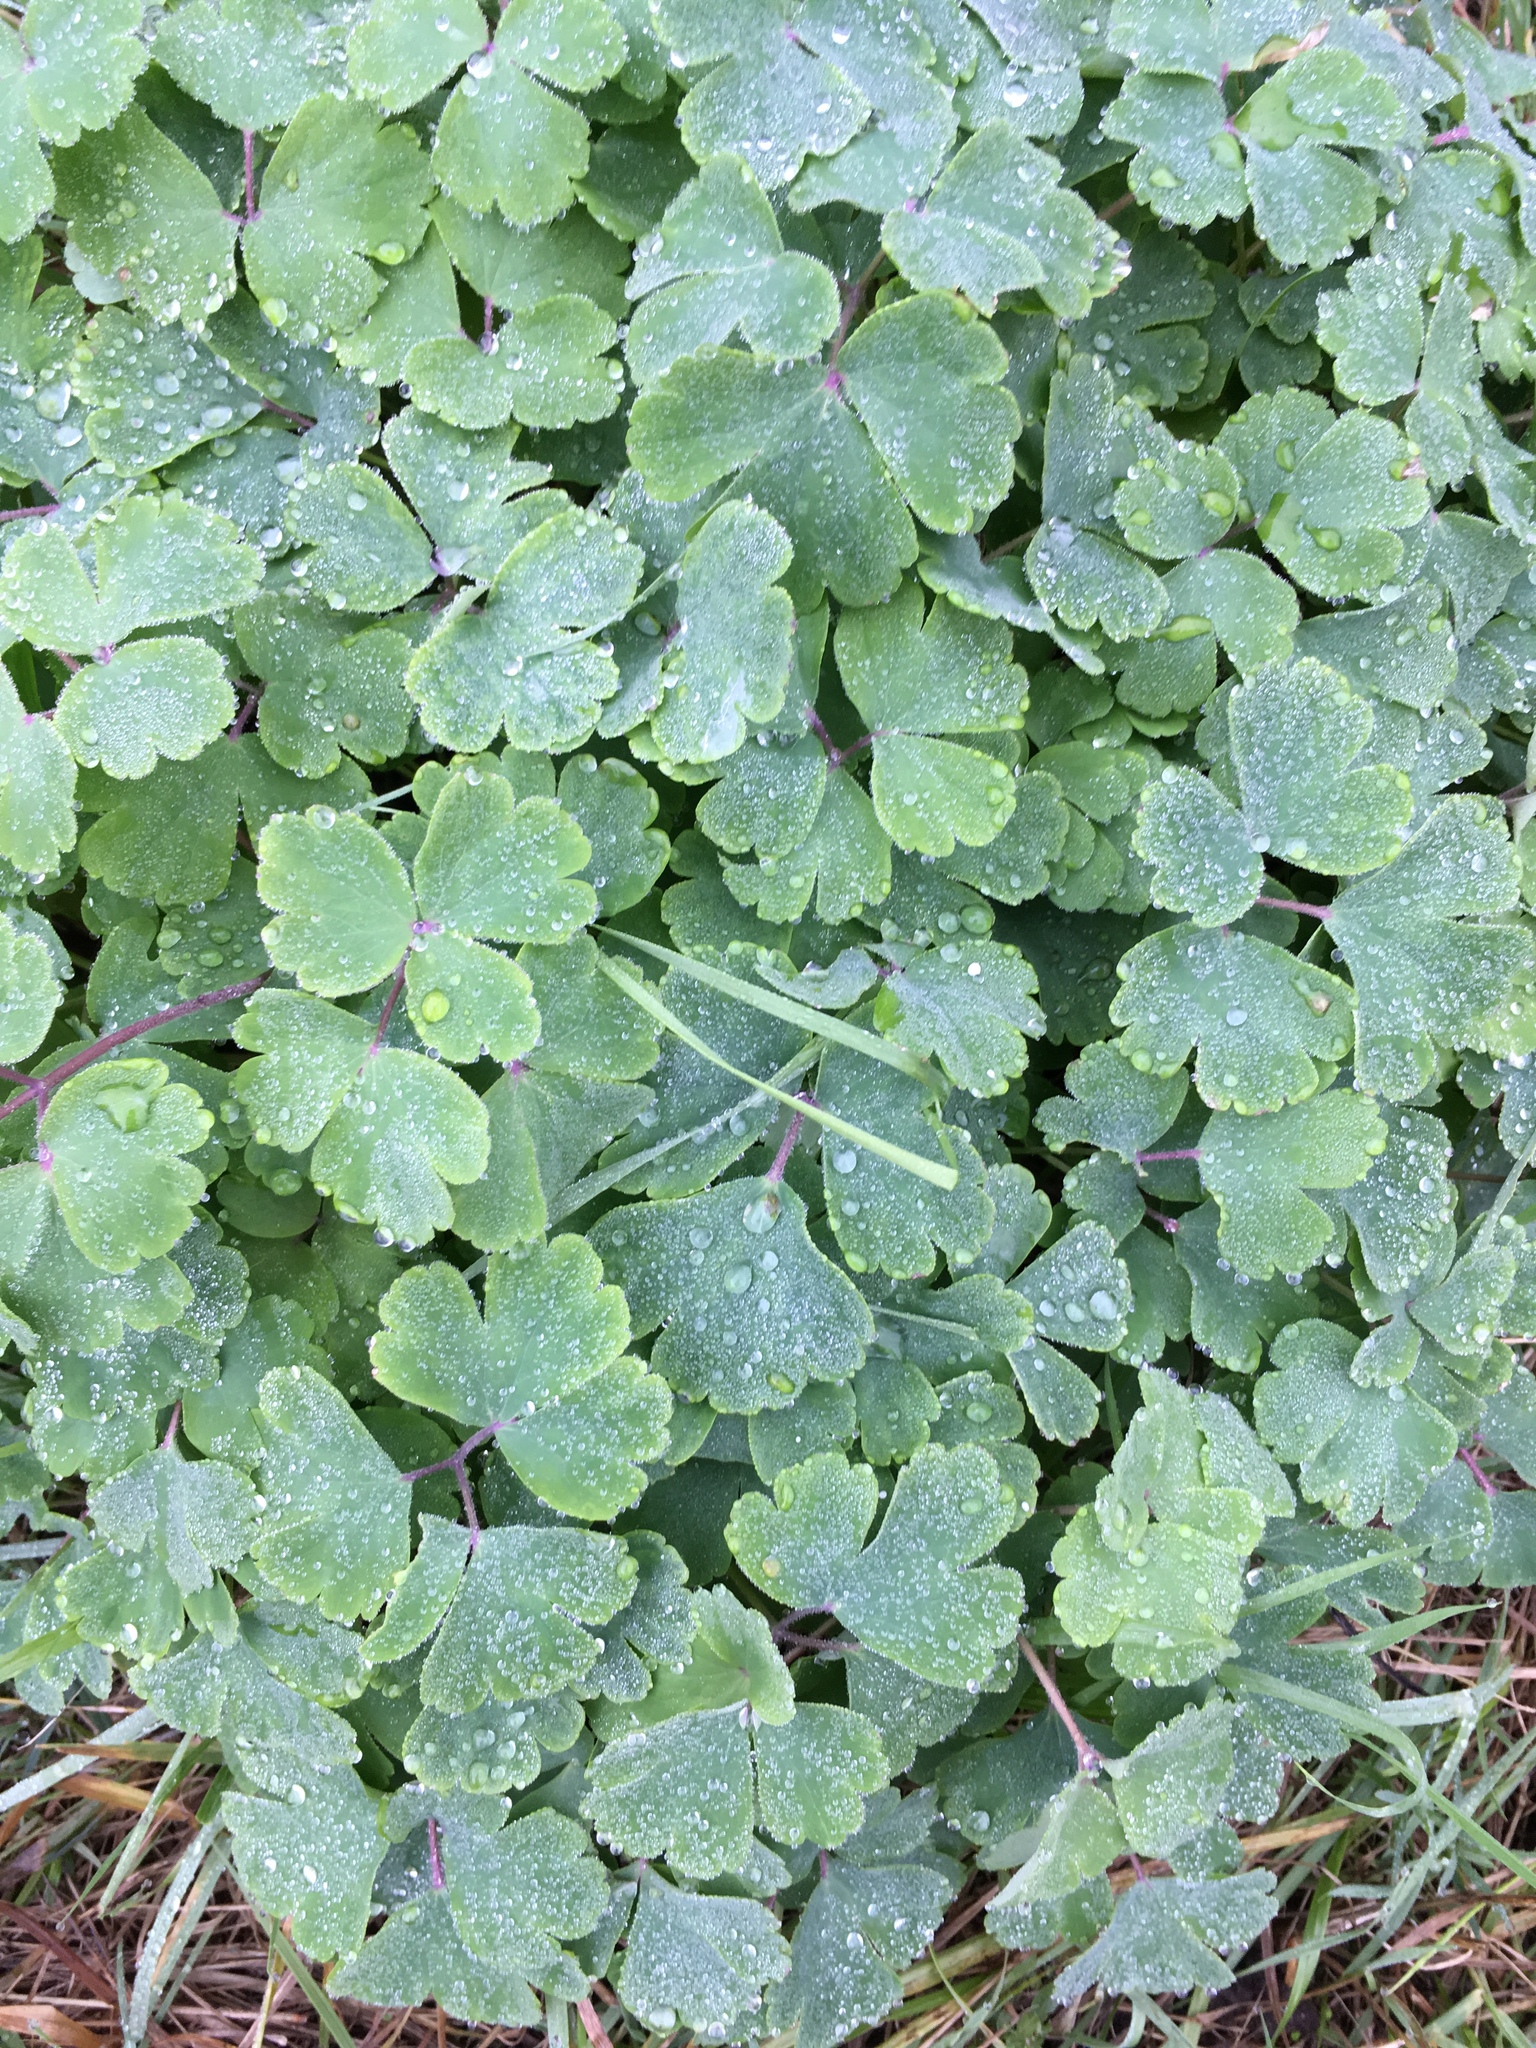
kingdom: Plantae
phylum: Tracheophyta
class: Magnoliopsida
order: Ranunculales
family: Ranunculaceae
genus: Aquilegia
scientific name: Aquilegia vulgaris
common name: Columbine
